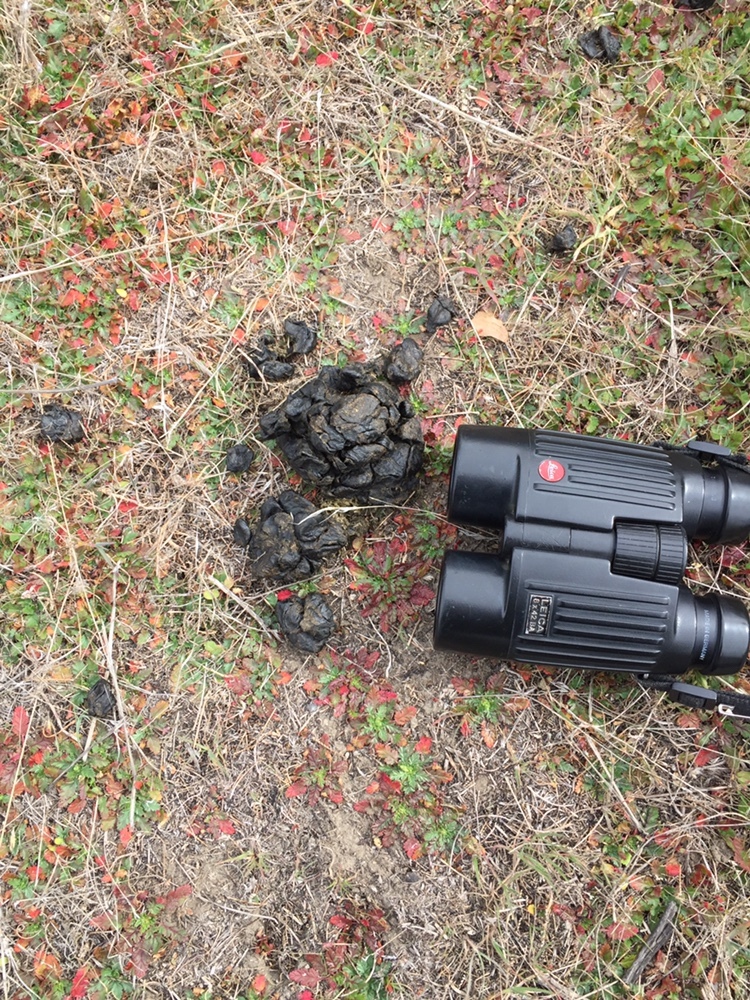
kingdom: Animalia
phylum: Chordata
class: Mammalia
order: Artiodactyla
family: Cervidae
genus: Cervus
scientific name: Cervus elaphus
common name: Red deer
